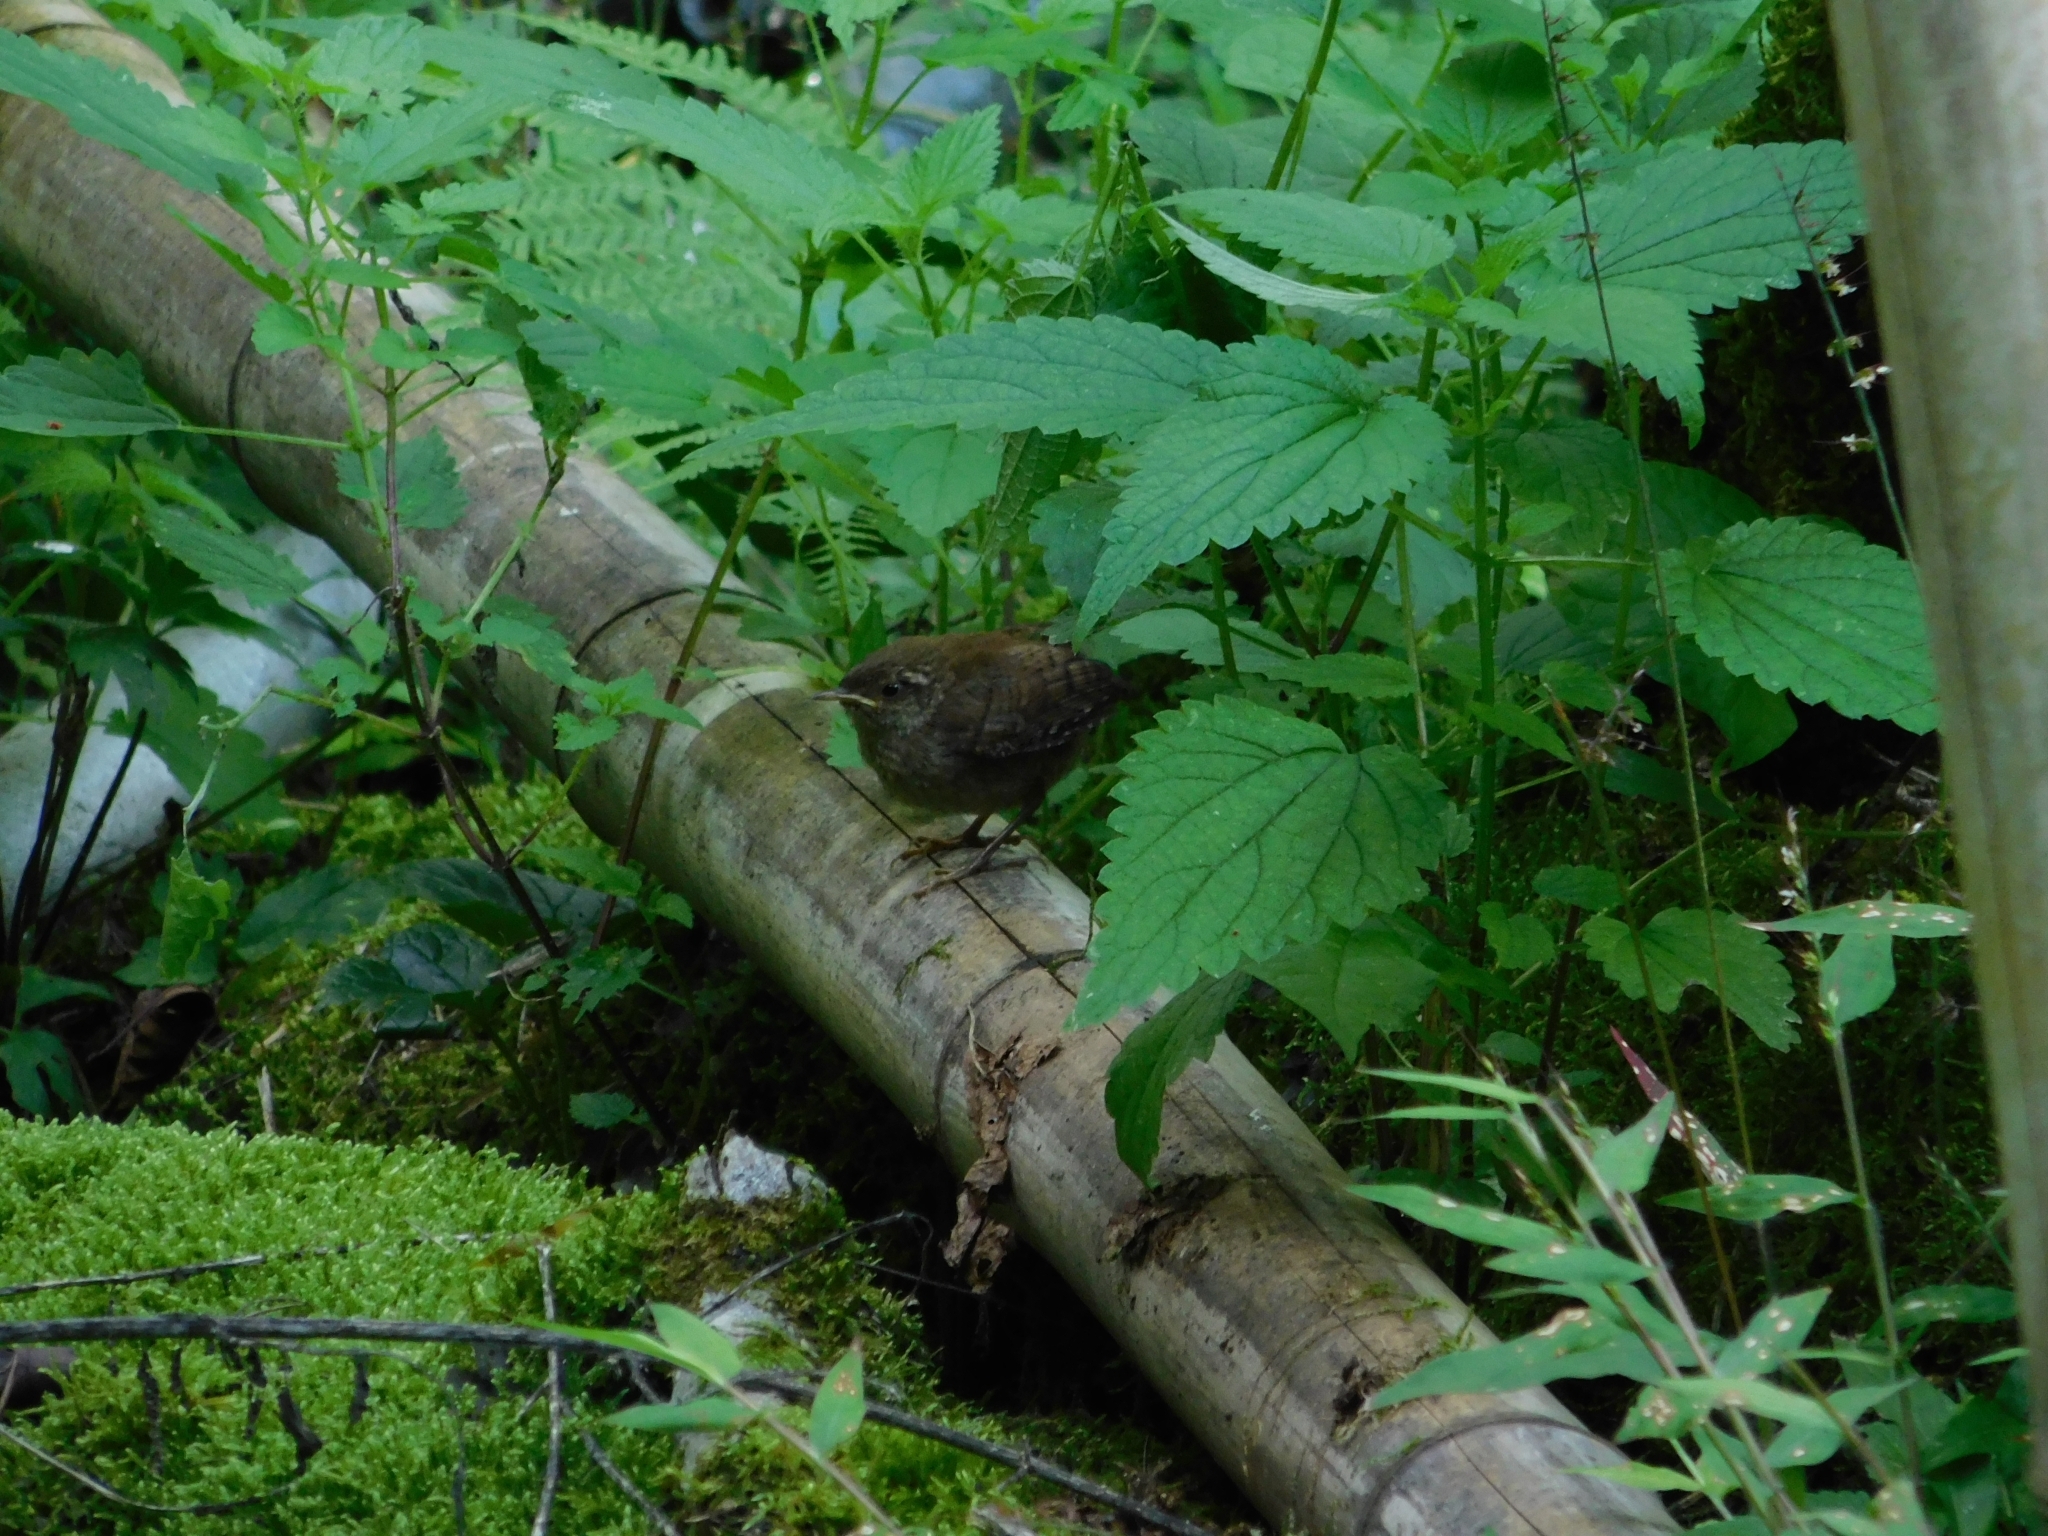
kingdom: Animalia
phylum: Chordata
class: Aves
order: Passeriformes
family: Troglodytidae
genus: Troglodytes
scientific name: Troglodytes troglodytes
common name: Eurasian wren
